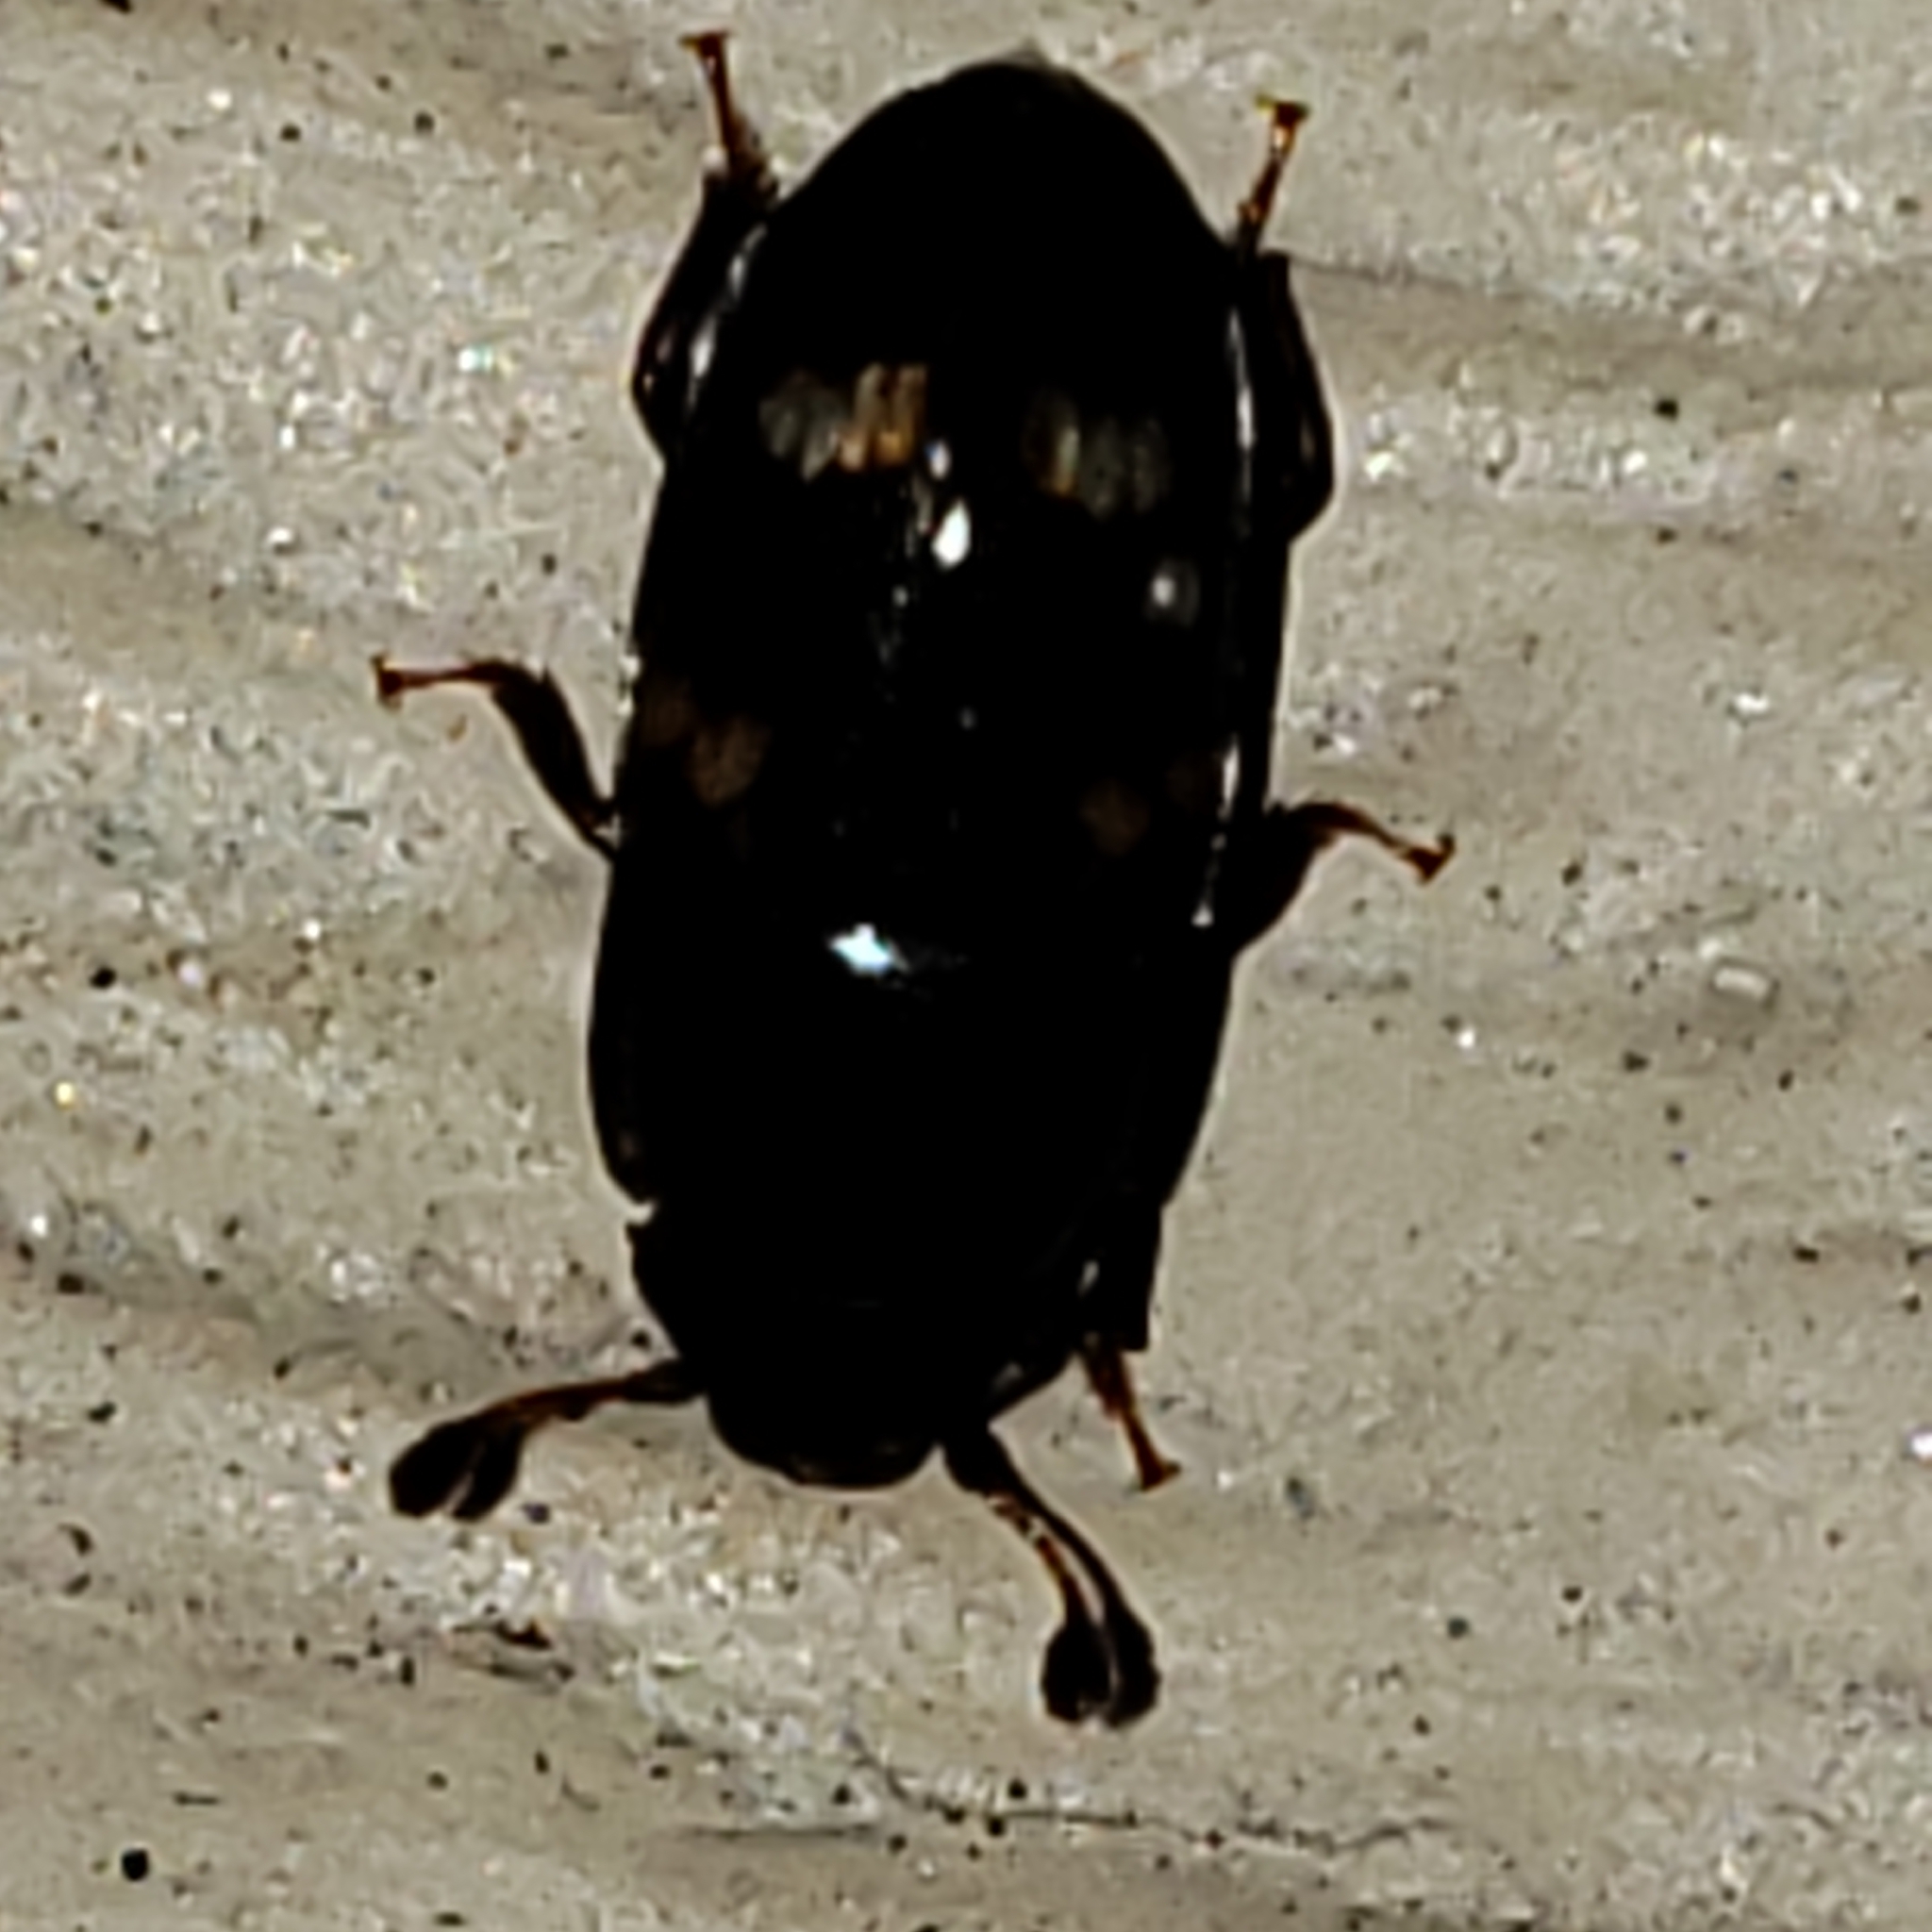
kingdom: Animalia
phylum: Arthropoda
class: Insecta
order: Coleoptera
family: Nitidulidae
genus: Glischrochilus
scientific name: Glischrochilus quadrisignatus
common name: Picnic beetle
